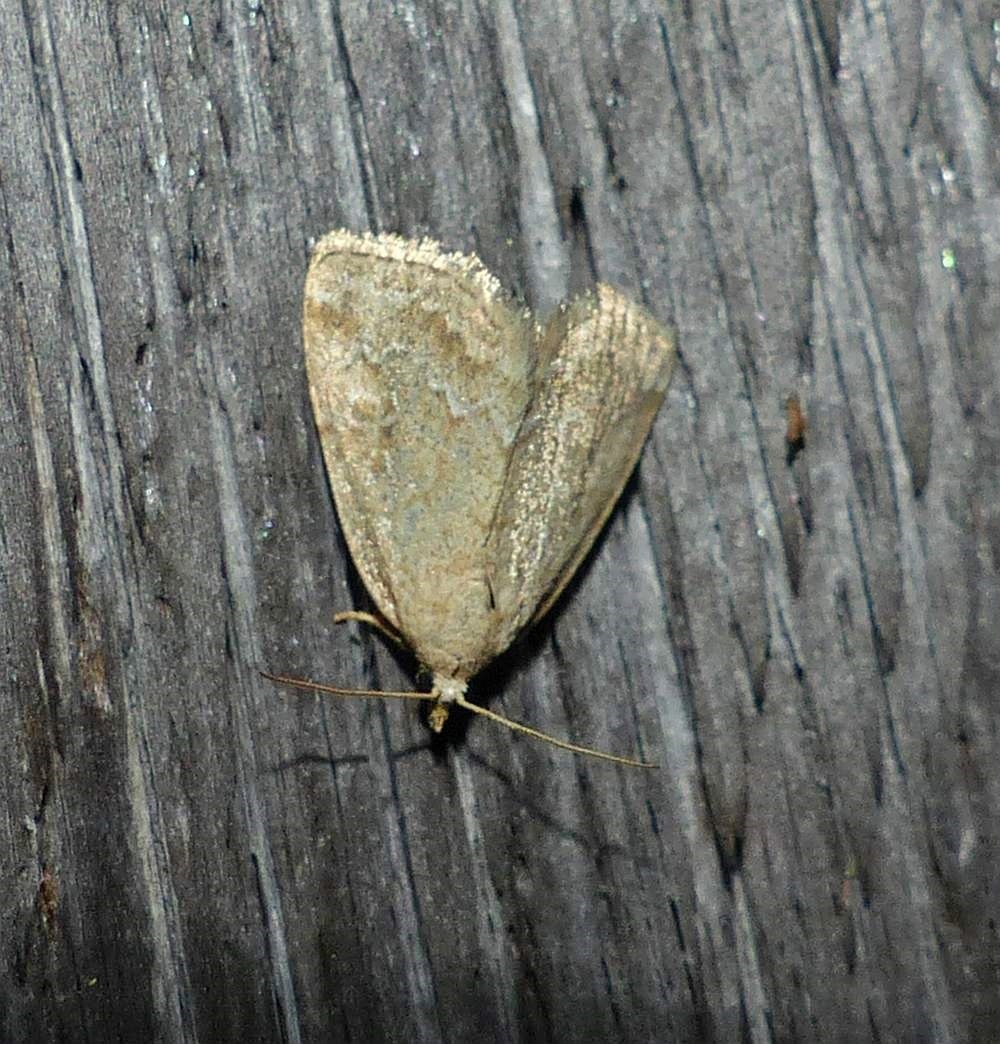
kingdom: Animalia
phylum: Arthropoda
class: Insecta
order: Lepidoptera
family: Noctuidae
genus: Protodeltote
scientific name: Protodeltote albidula
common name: Pale glyph
